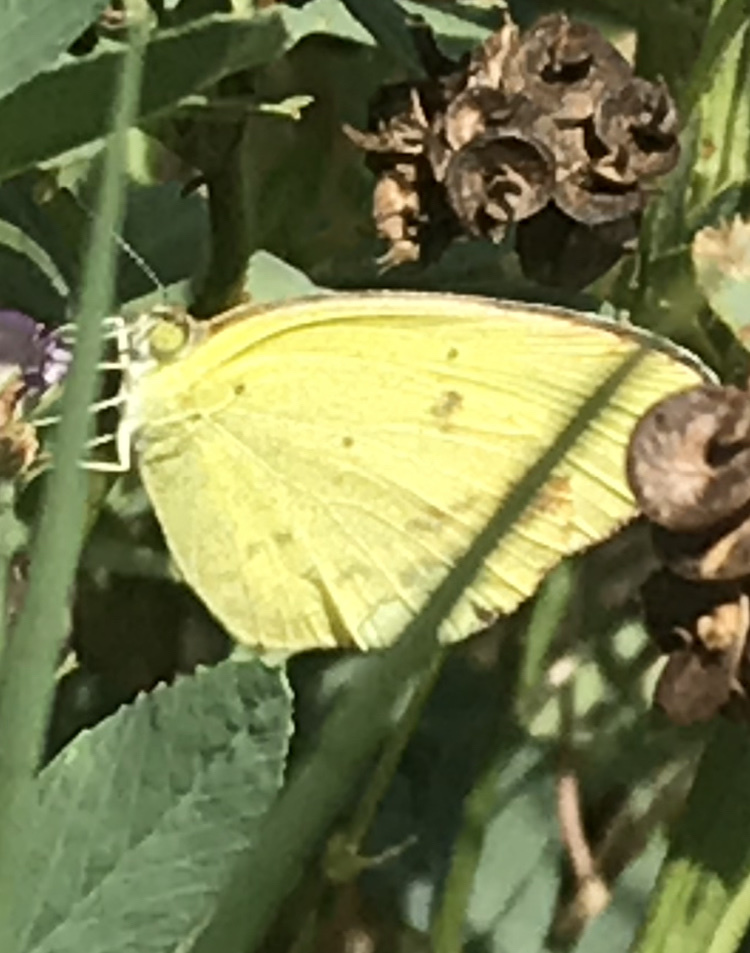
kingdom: Animalia
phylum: Arthropoda
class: Insecta
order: Lepidoptera
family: Pieridae
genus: Pyrisitia
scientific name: Pyrisitia lisa
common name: Little yellow
